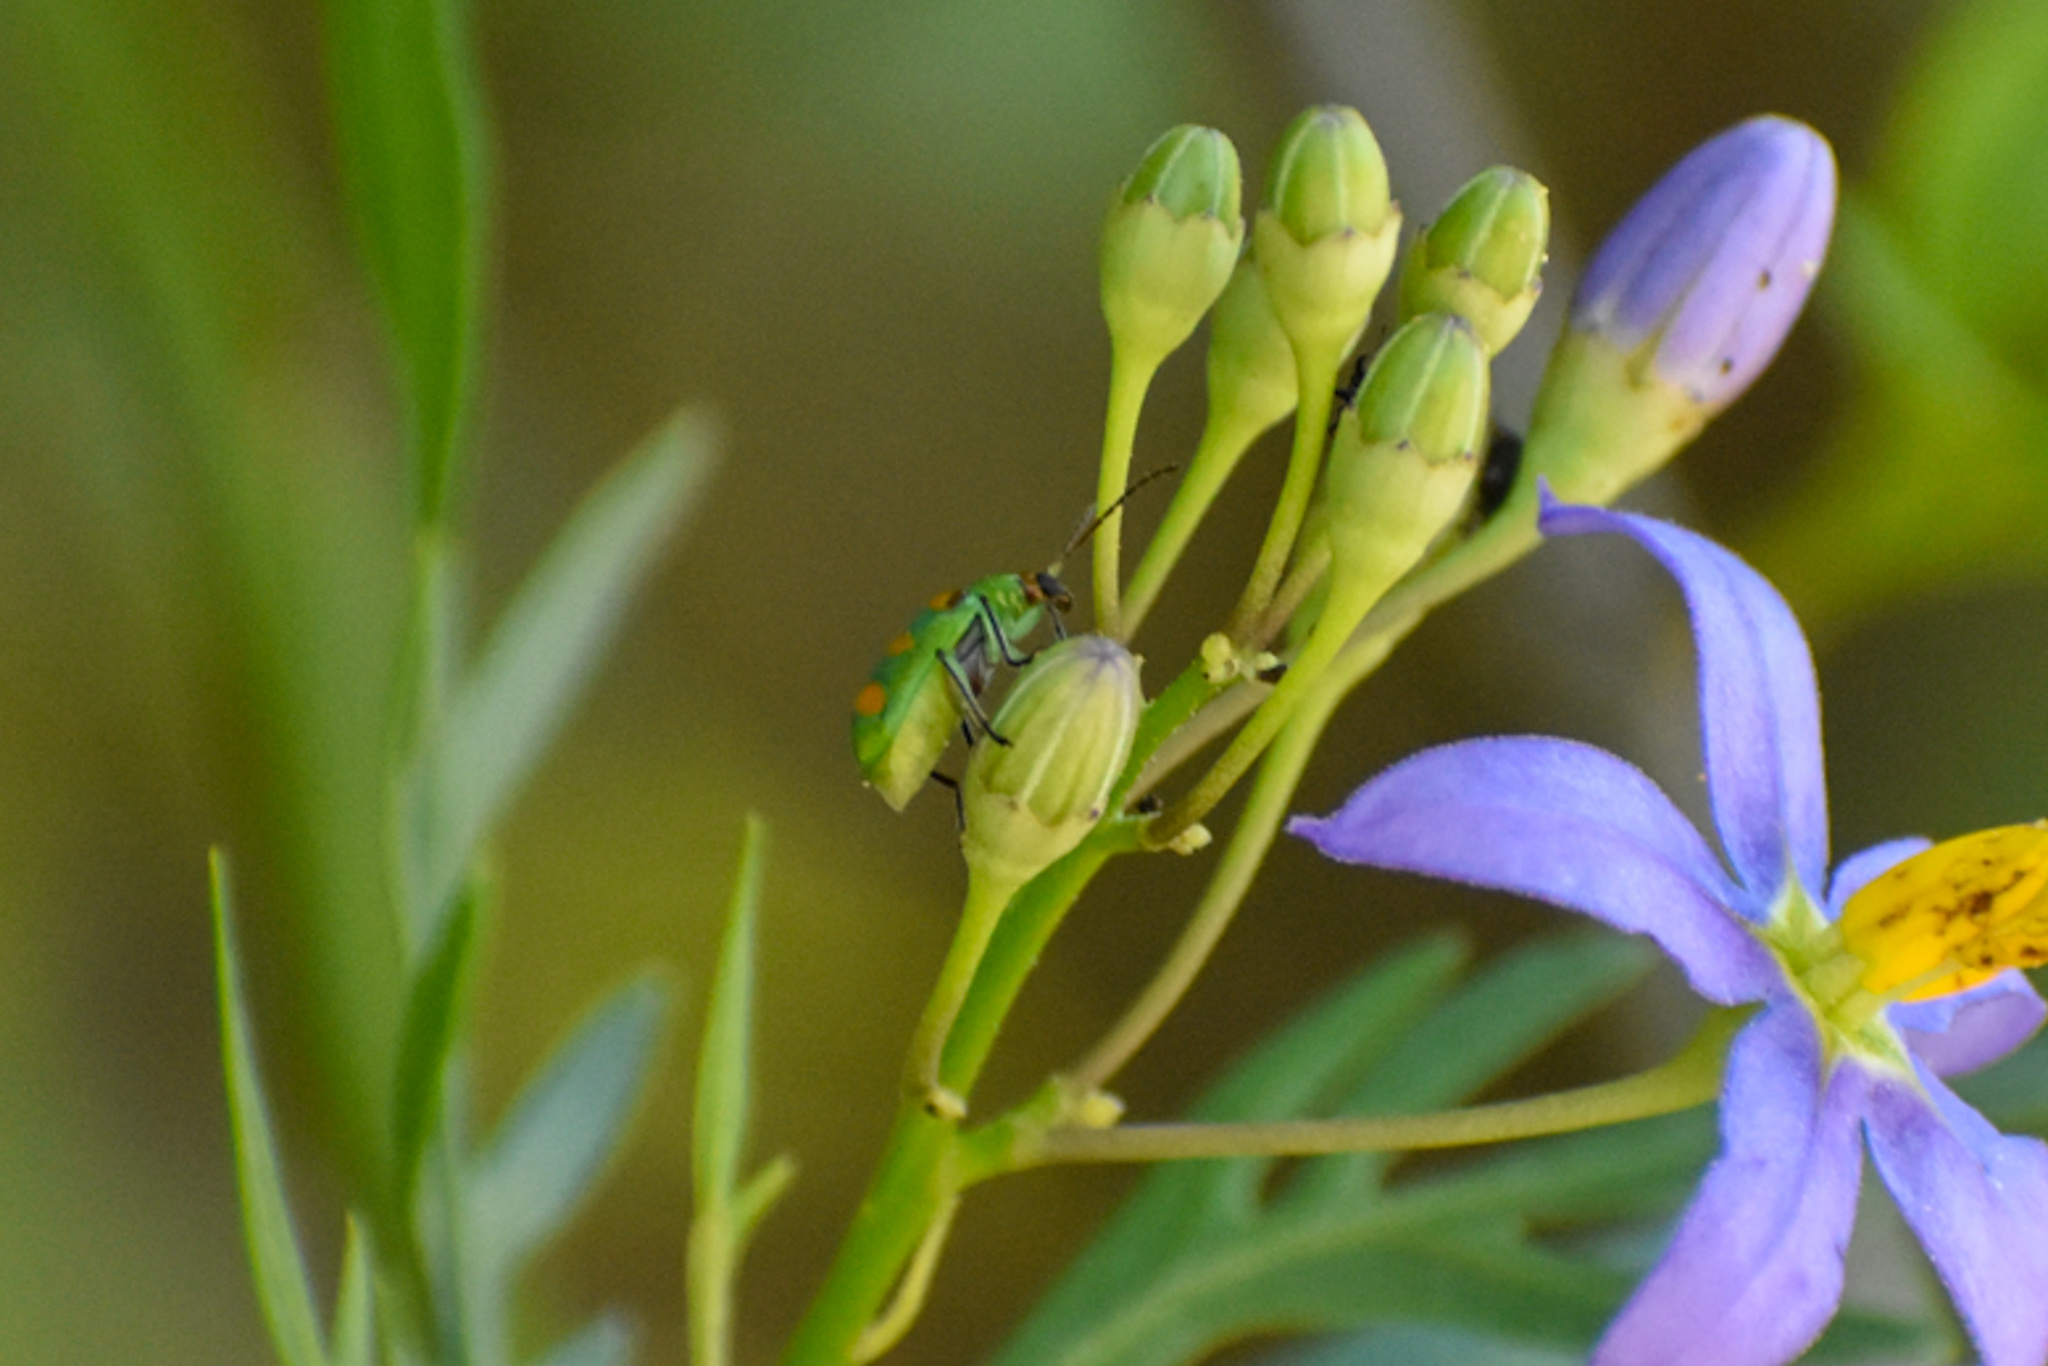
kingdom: Animalia
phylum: Arthropoda
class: Insecta
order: Coleoptera
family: Chrysomelidae
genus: Diabrotica
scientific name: Diabrotica speciosa
